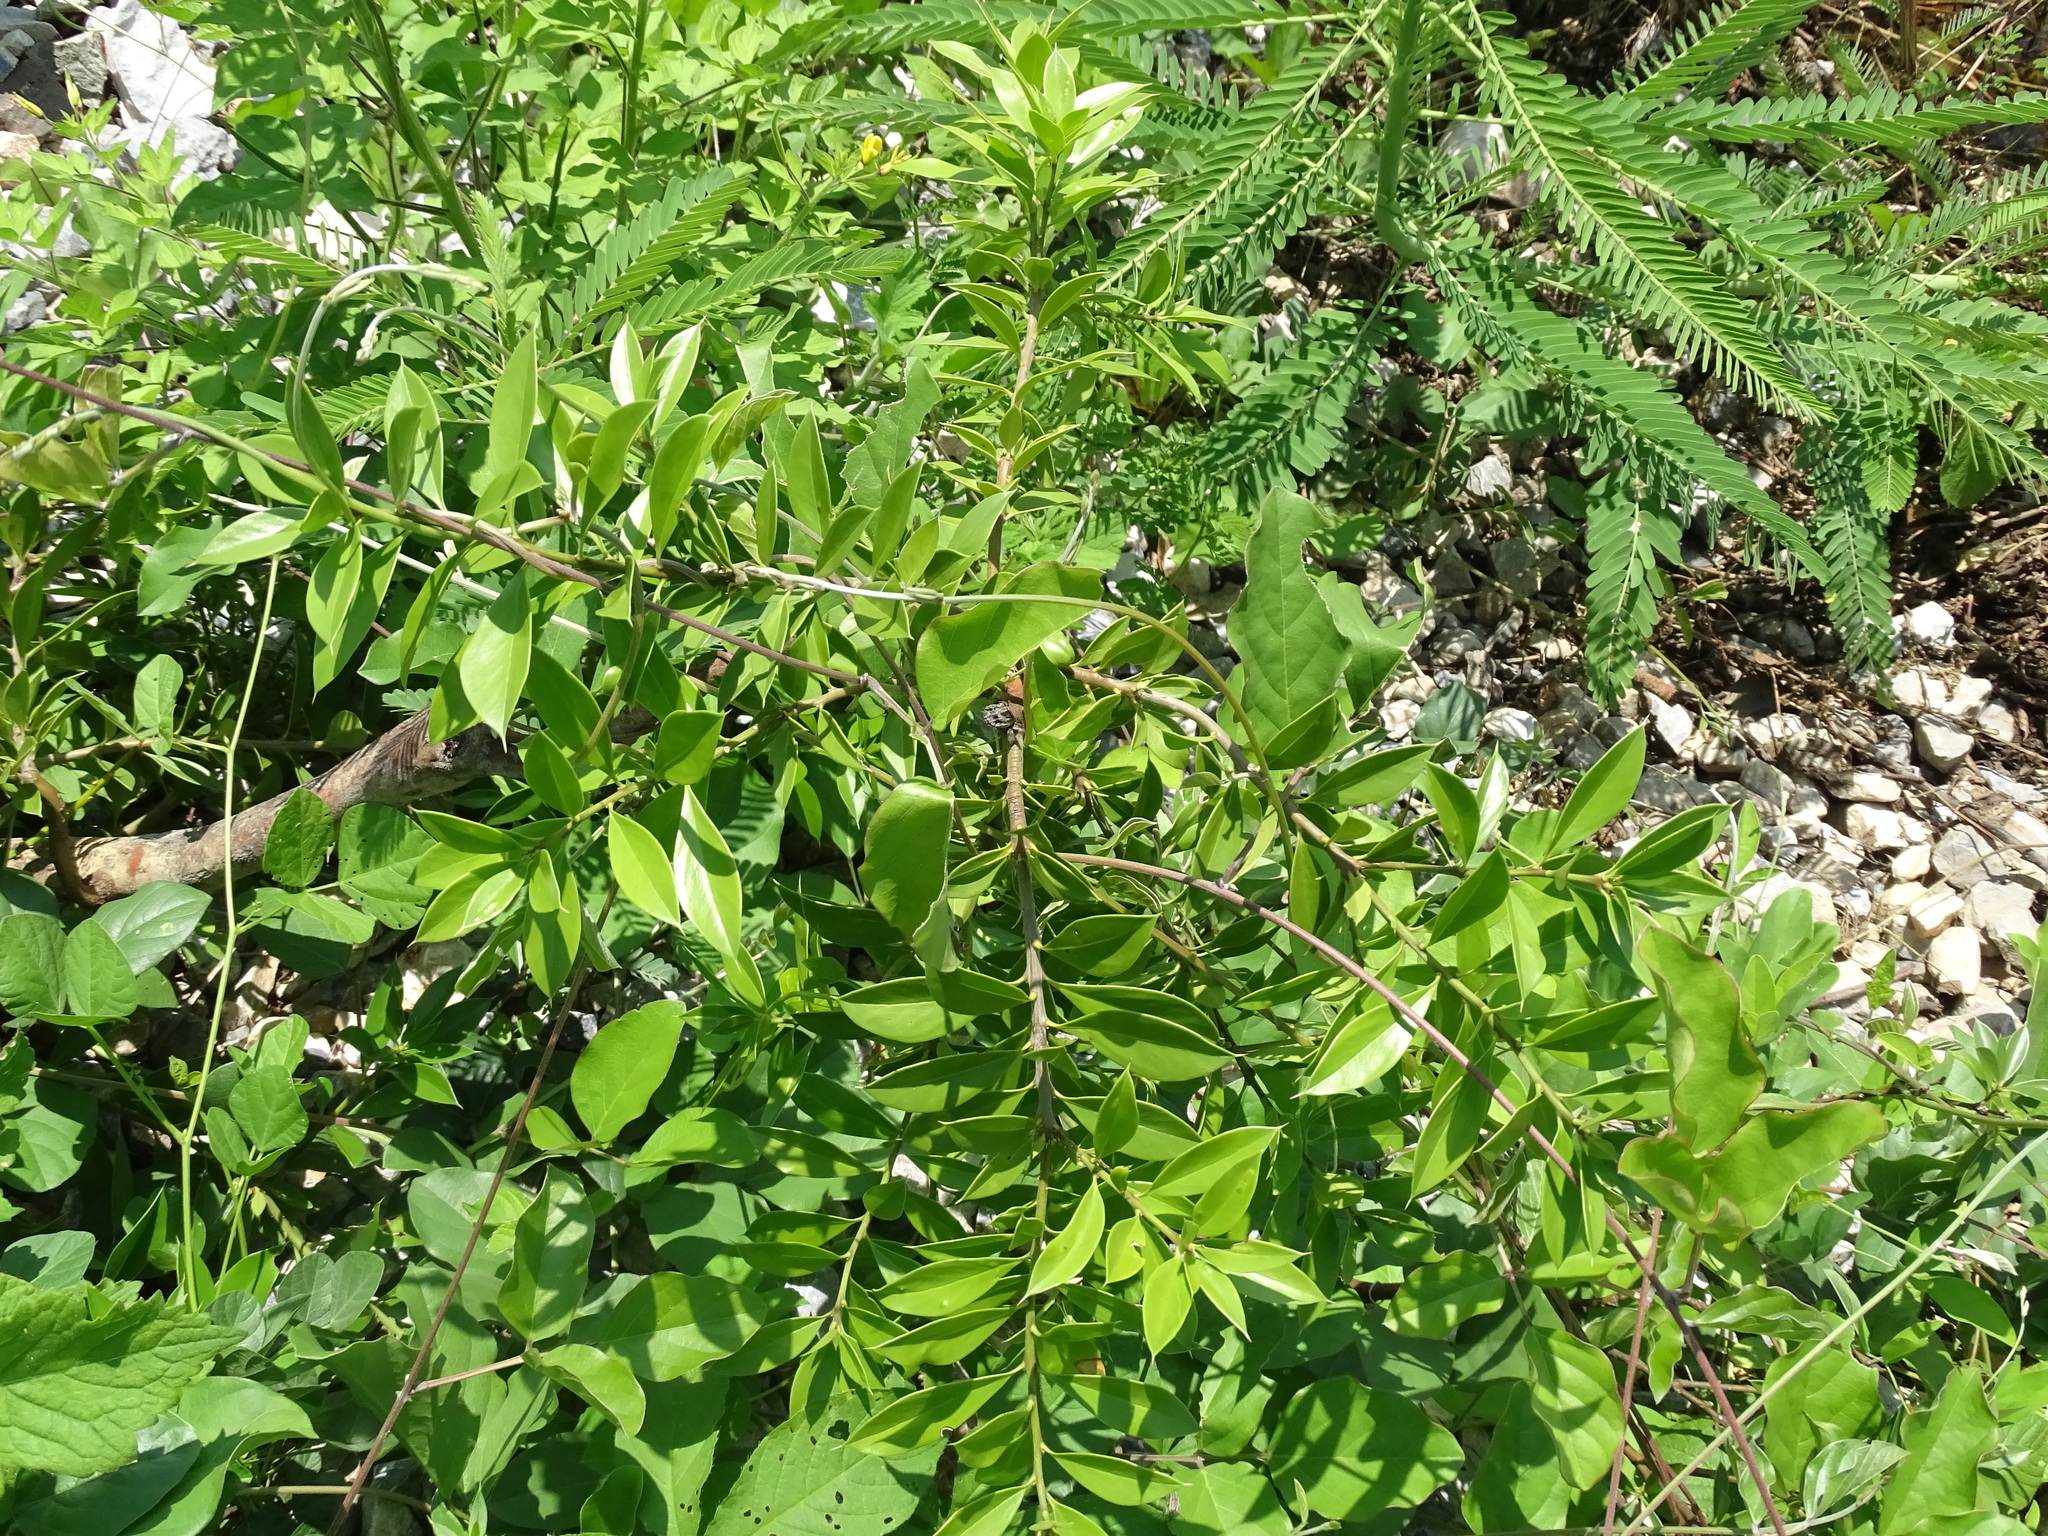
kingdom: Plantae
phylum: Tracheophyta
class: Magnoliopsida
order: Ericales
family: Primulaceae
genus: Bonellia
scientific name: Bonellia macrocarpa
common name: Primrose
